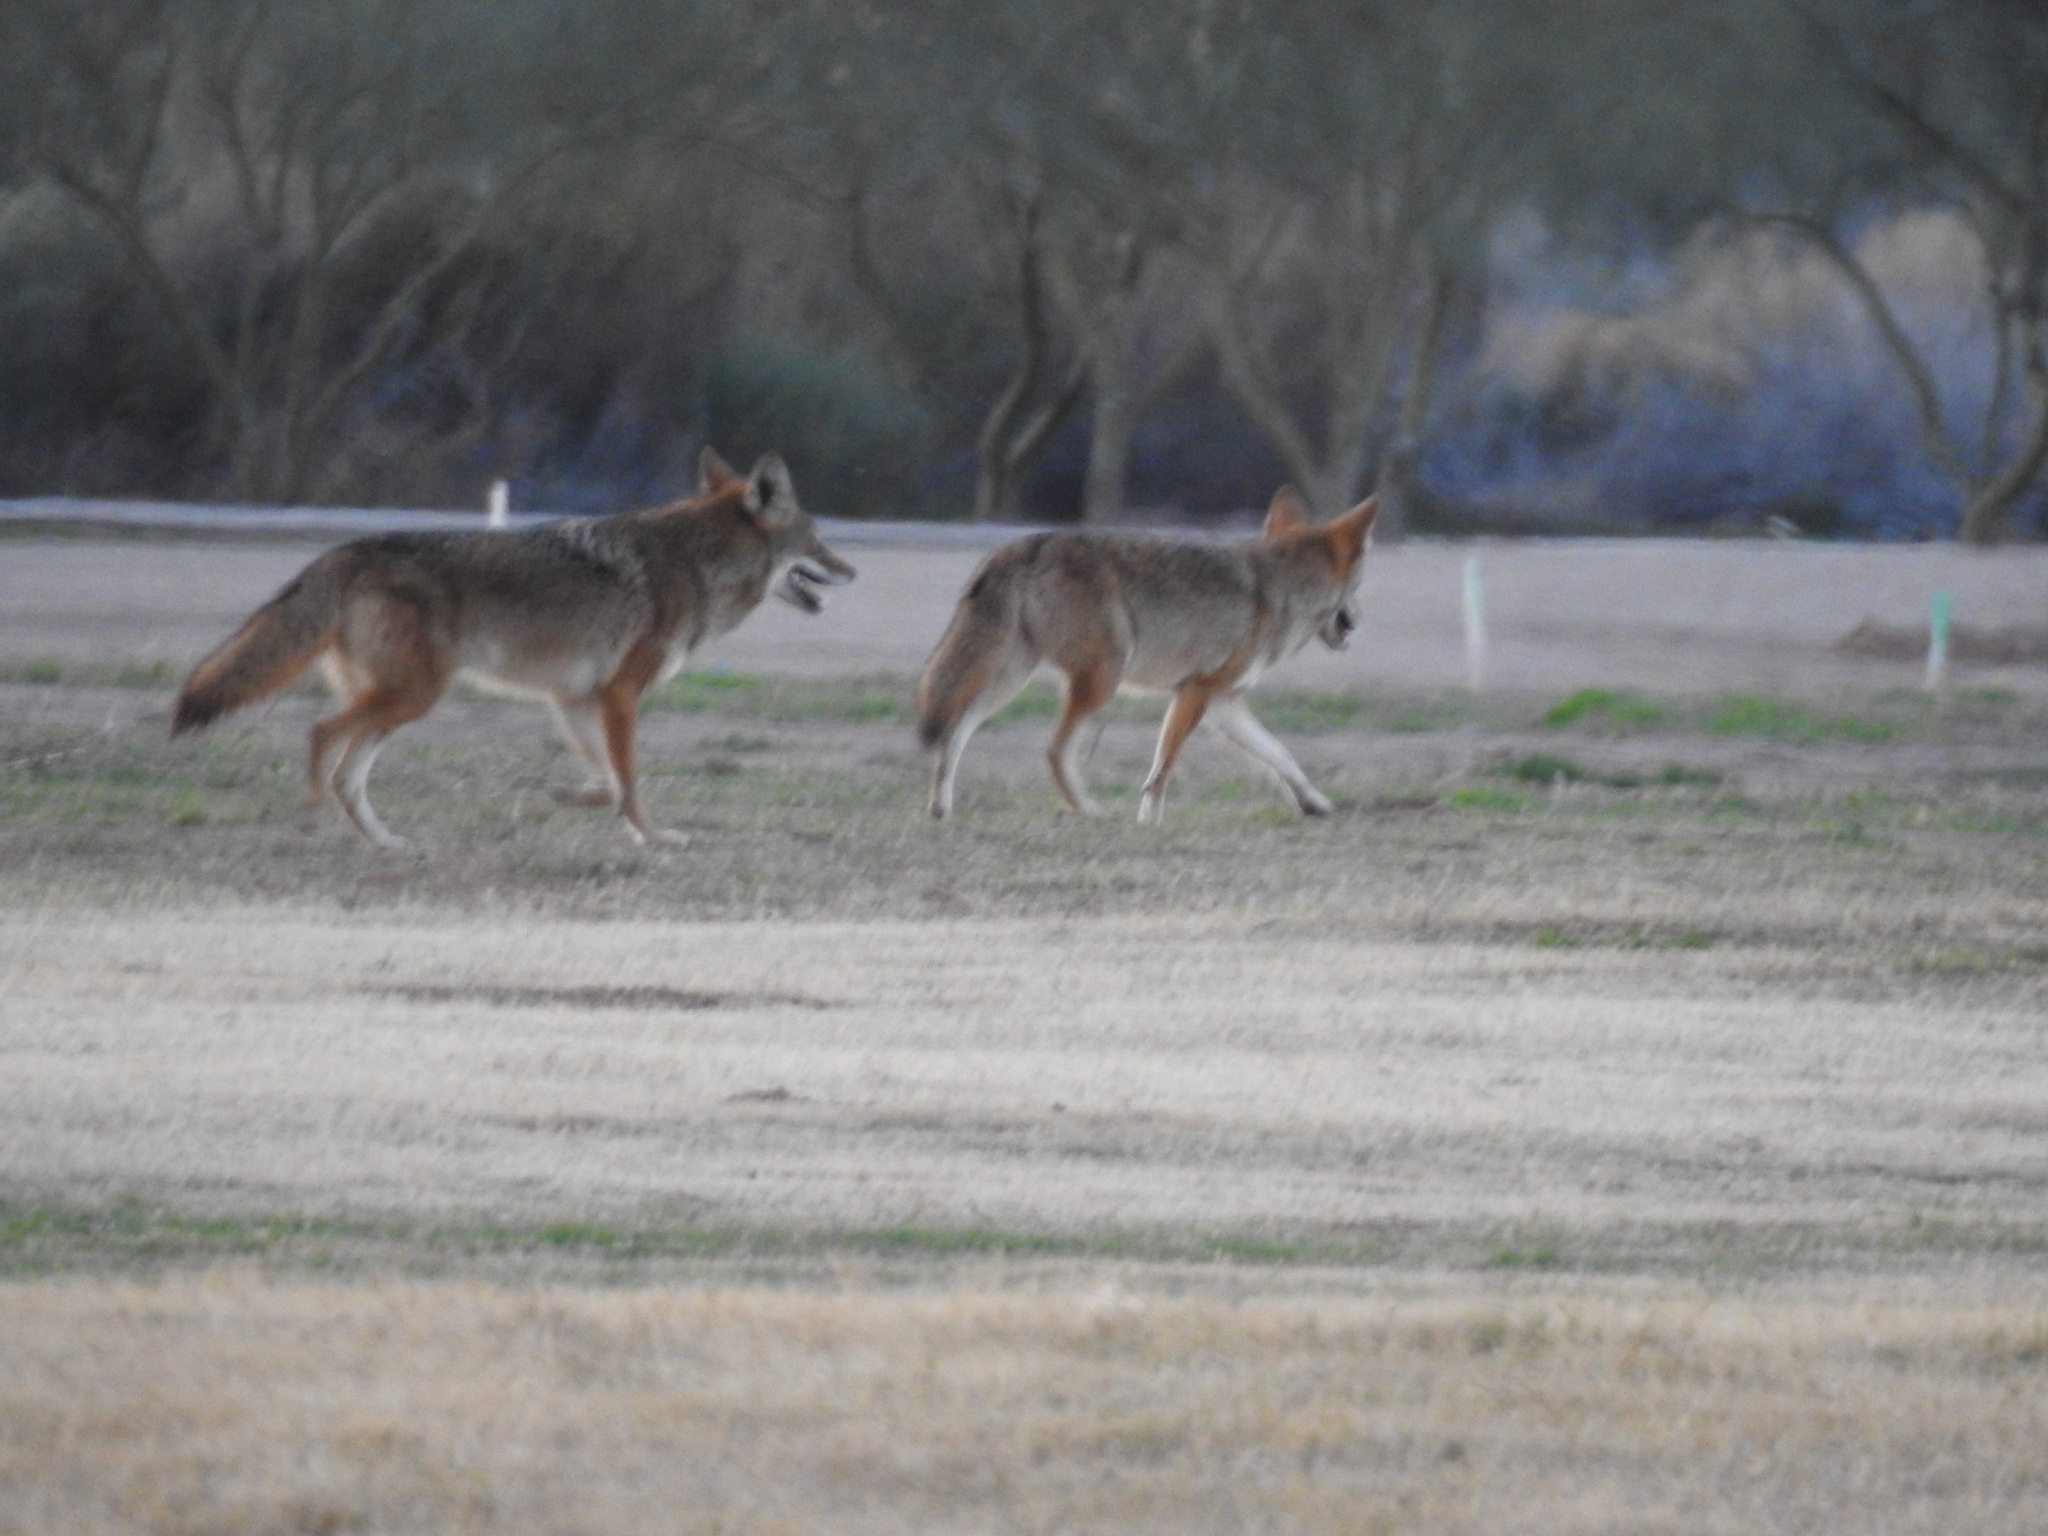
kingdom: Animalia
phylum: Chordata
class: Mammalia
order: Carnivora
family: Canidae
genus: Canis
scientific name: Canis latrans
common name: Coyote
